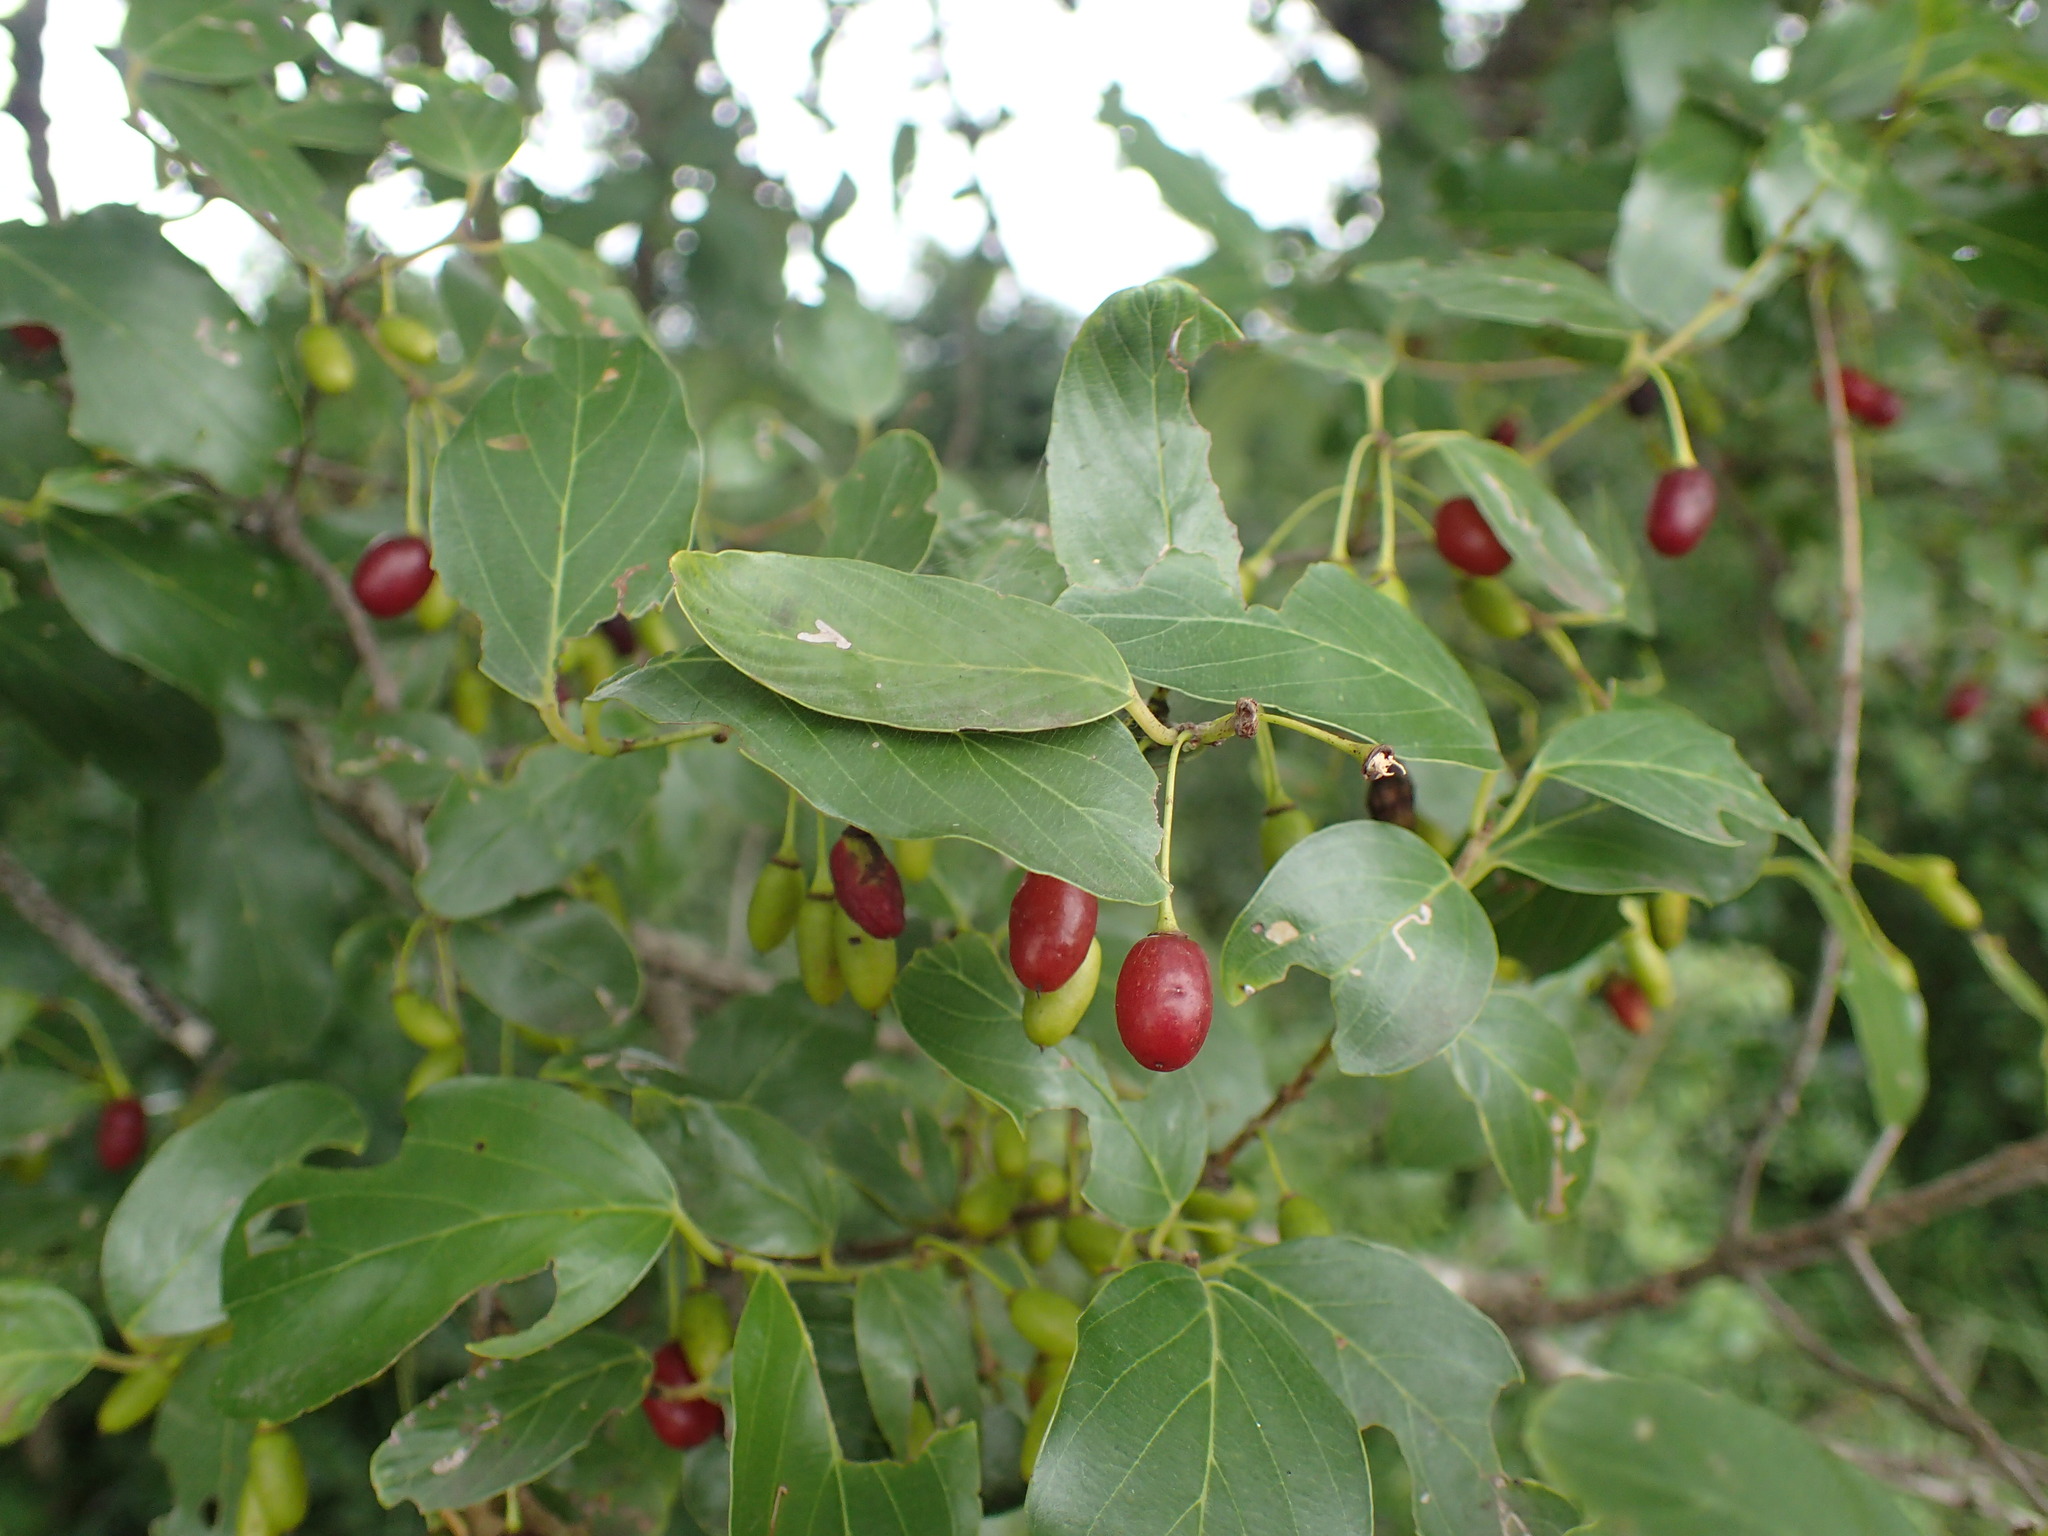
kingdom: Plantae
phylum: Tracheophyta
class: Magnoliopsida
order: Rosales
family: Rhamnaceae
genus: Phyllogeiton
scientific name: Phyllogeiton zeyheri
